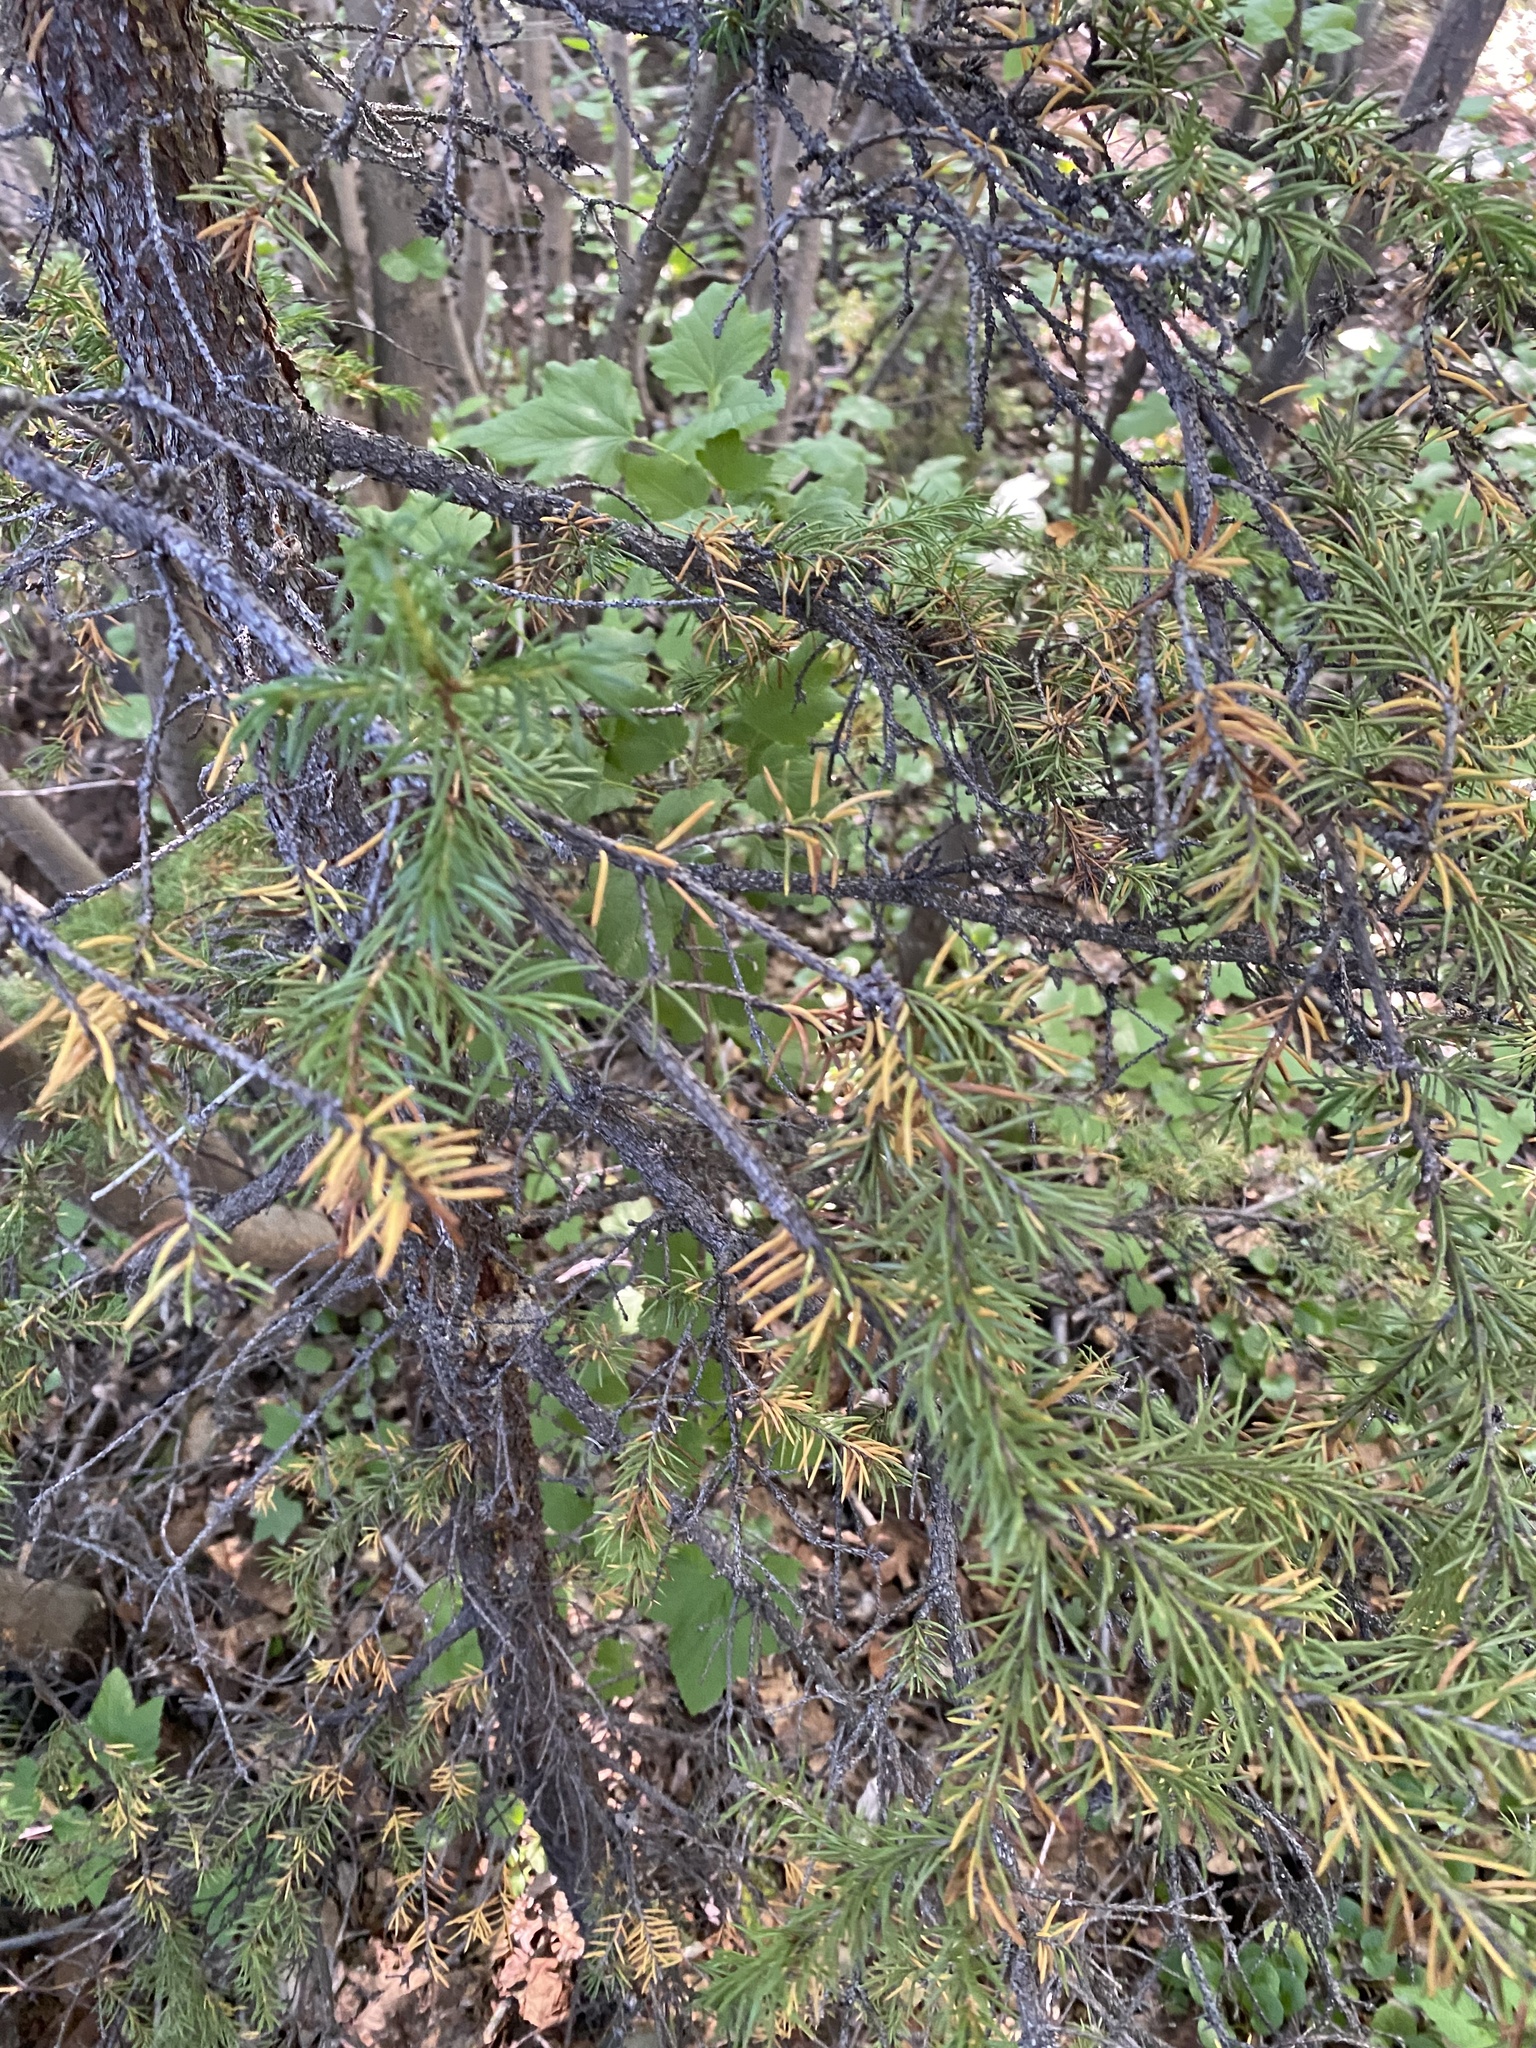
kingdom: Plantae
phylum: Tracheophyta
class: Pinopsida
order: Pinales
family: Pinaceae
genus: Picea
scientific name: Picea obovata
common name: Siberian spruce
